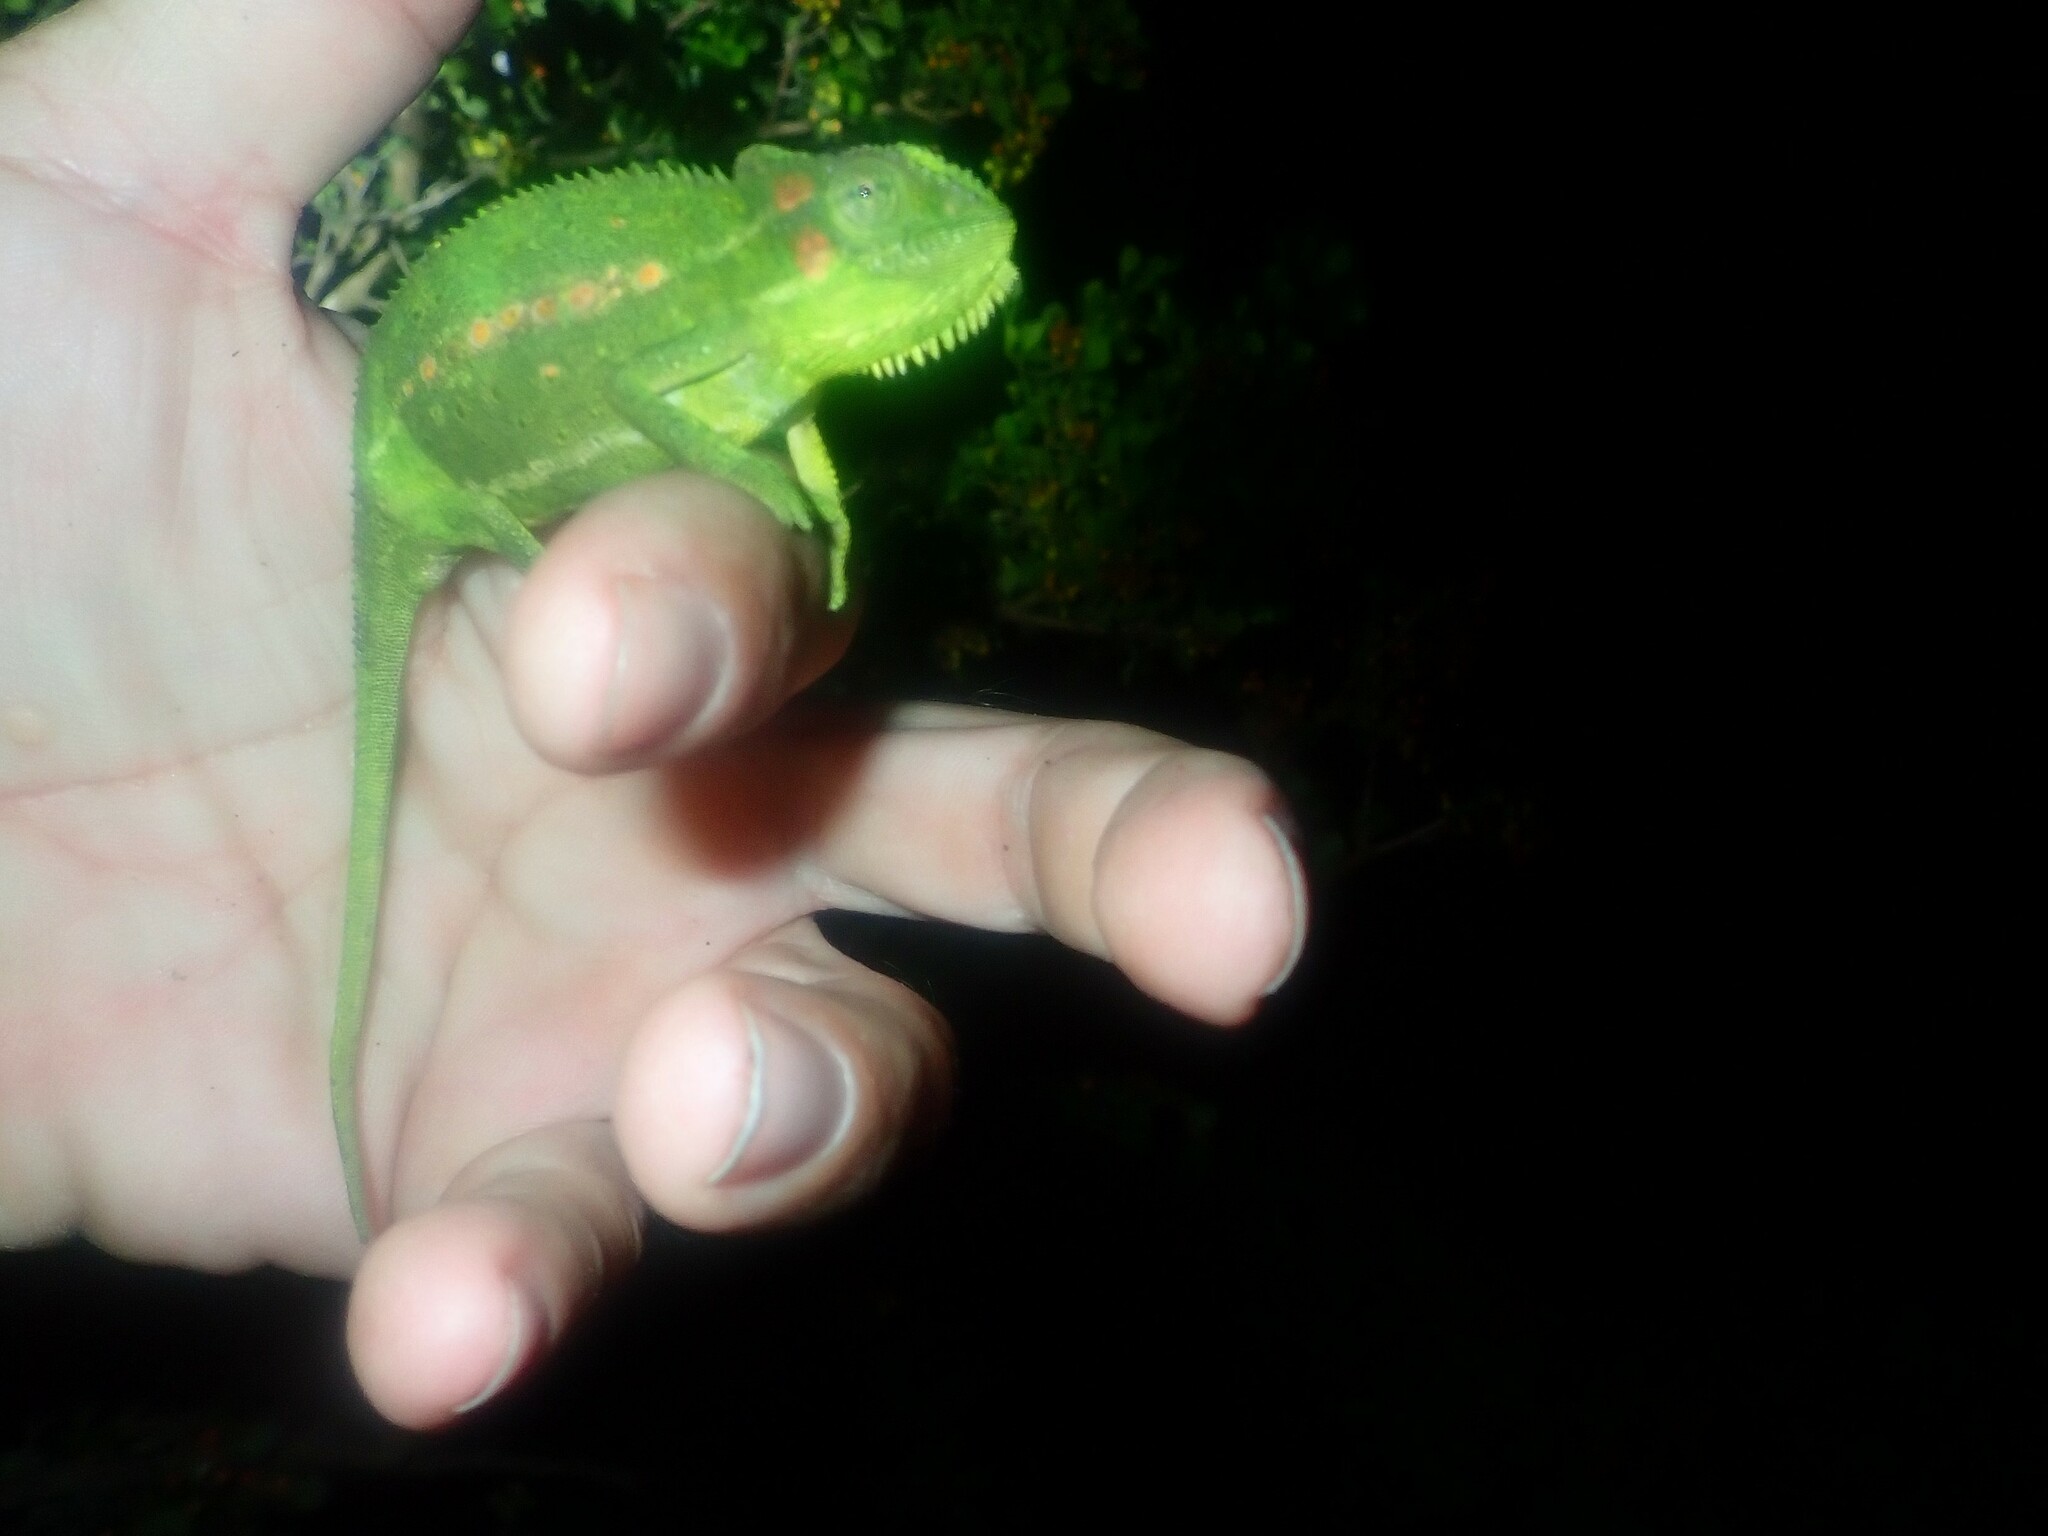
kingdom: Animalia
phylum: Chordata
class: Squamata
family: Chamaeleonidae
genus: Bradypodion
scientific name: Bradypodion pumilum
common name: Cape dwarf chameleon
